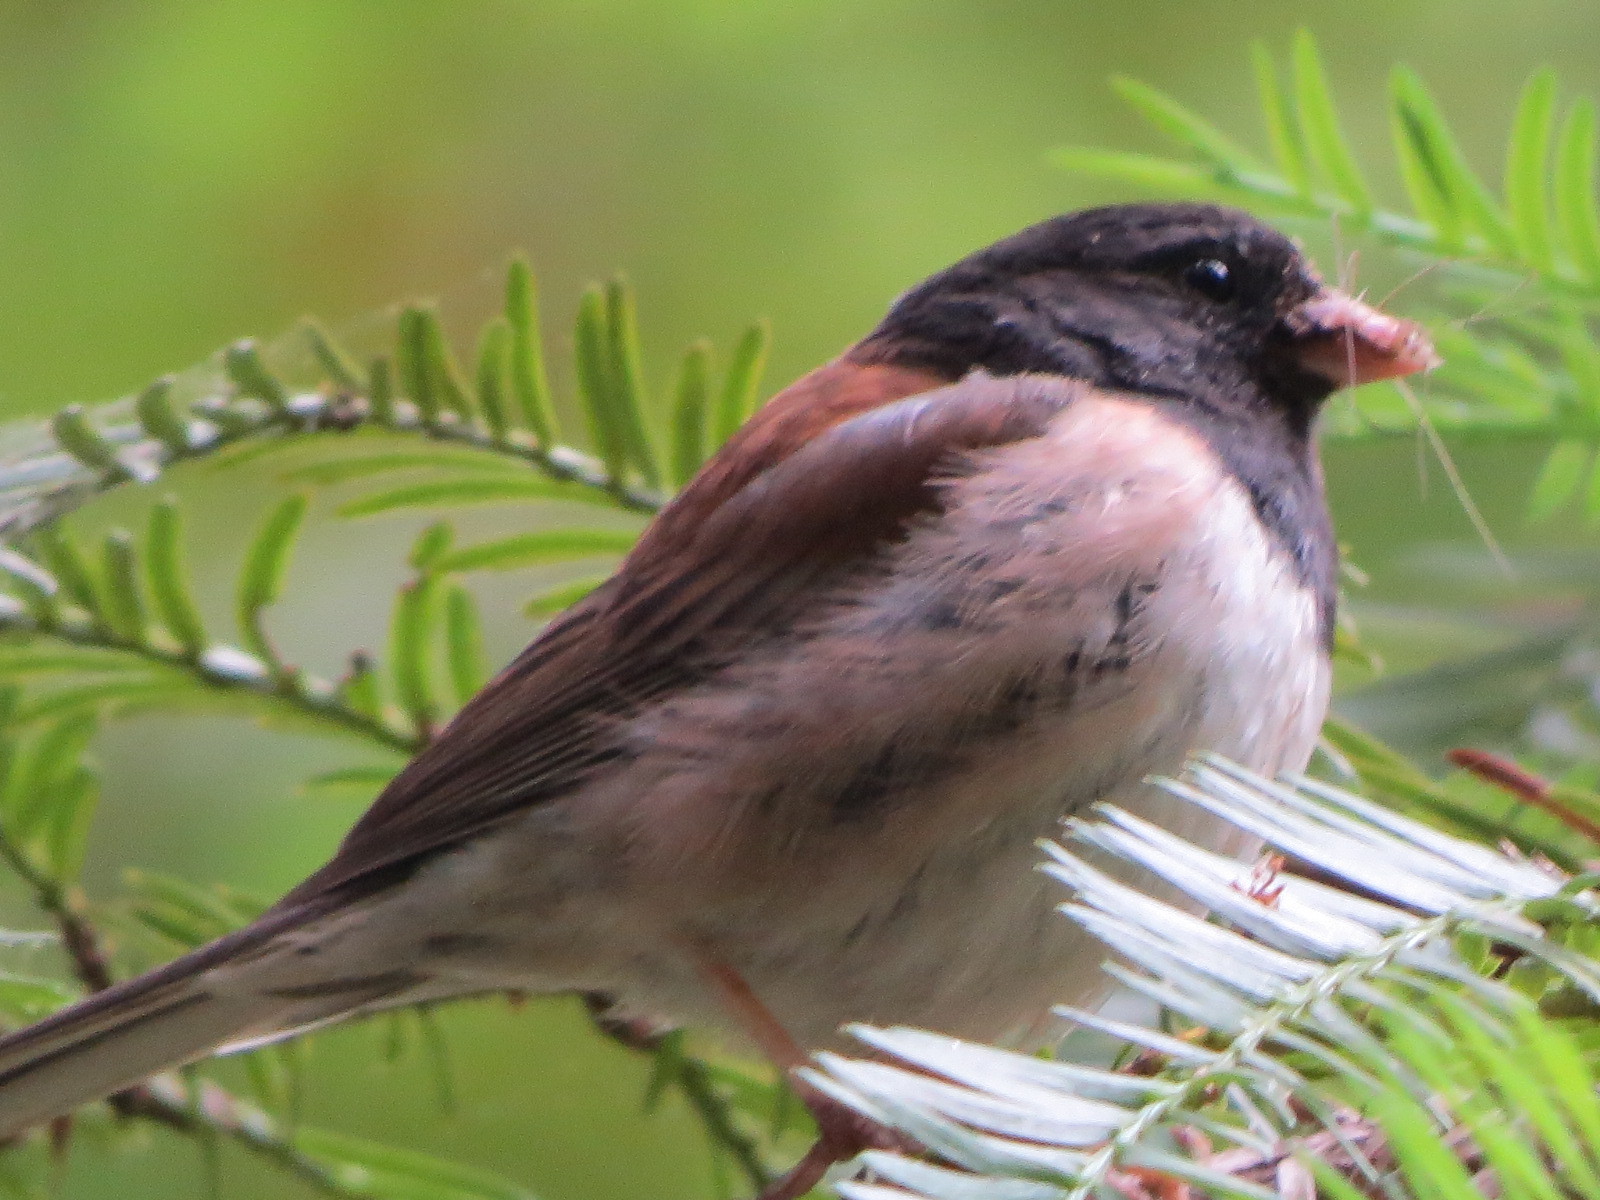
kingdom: Animalia
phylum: Chordata
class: Aves
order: Passeriformes
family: Passerellidae
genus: Junco
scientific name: Junco hyemalis
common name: Dark-eyed junco
